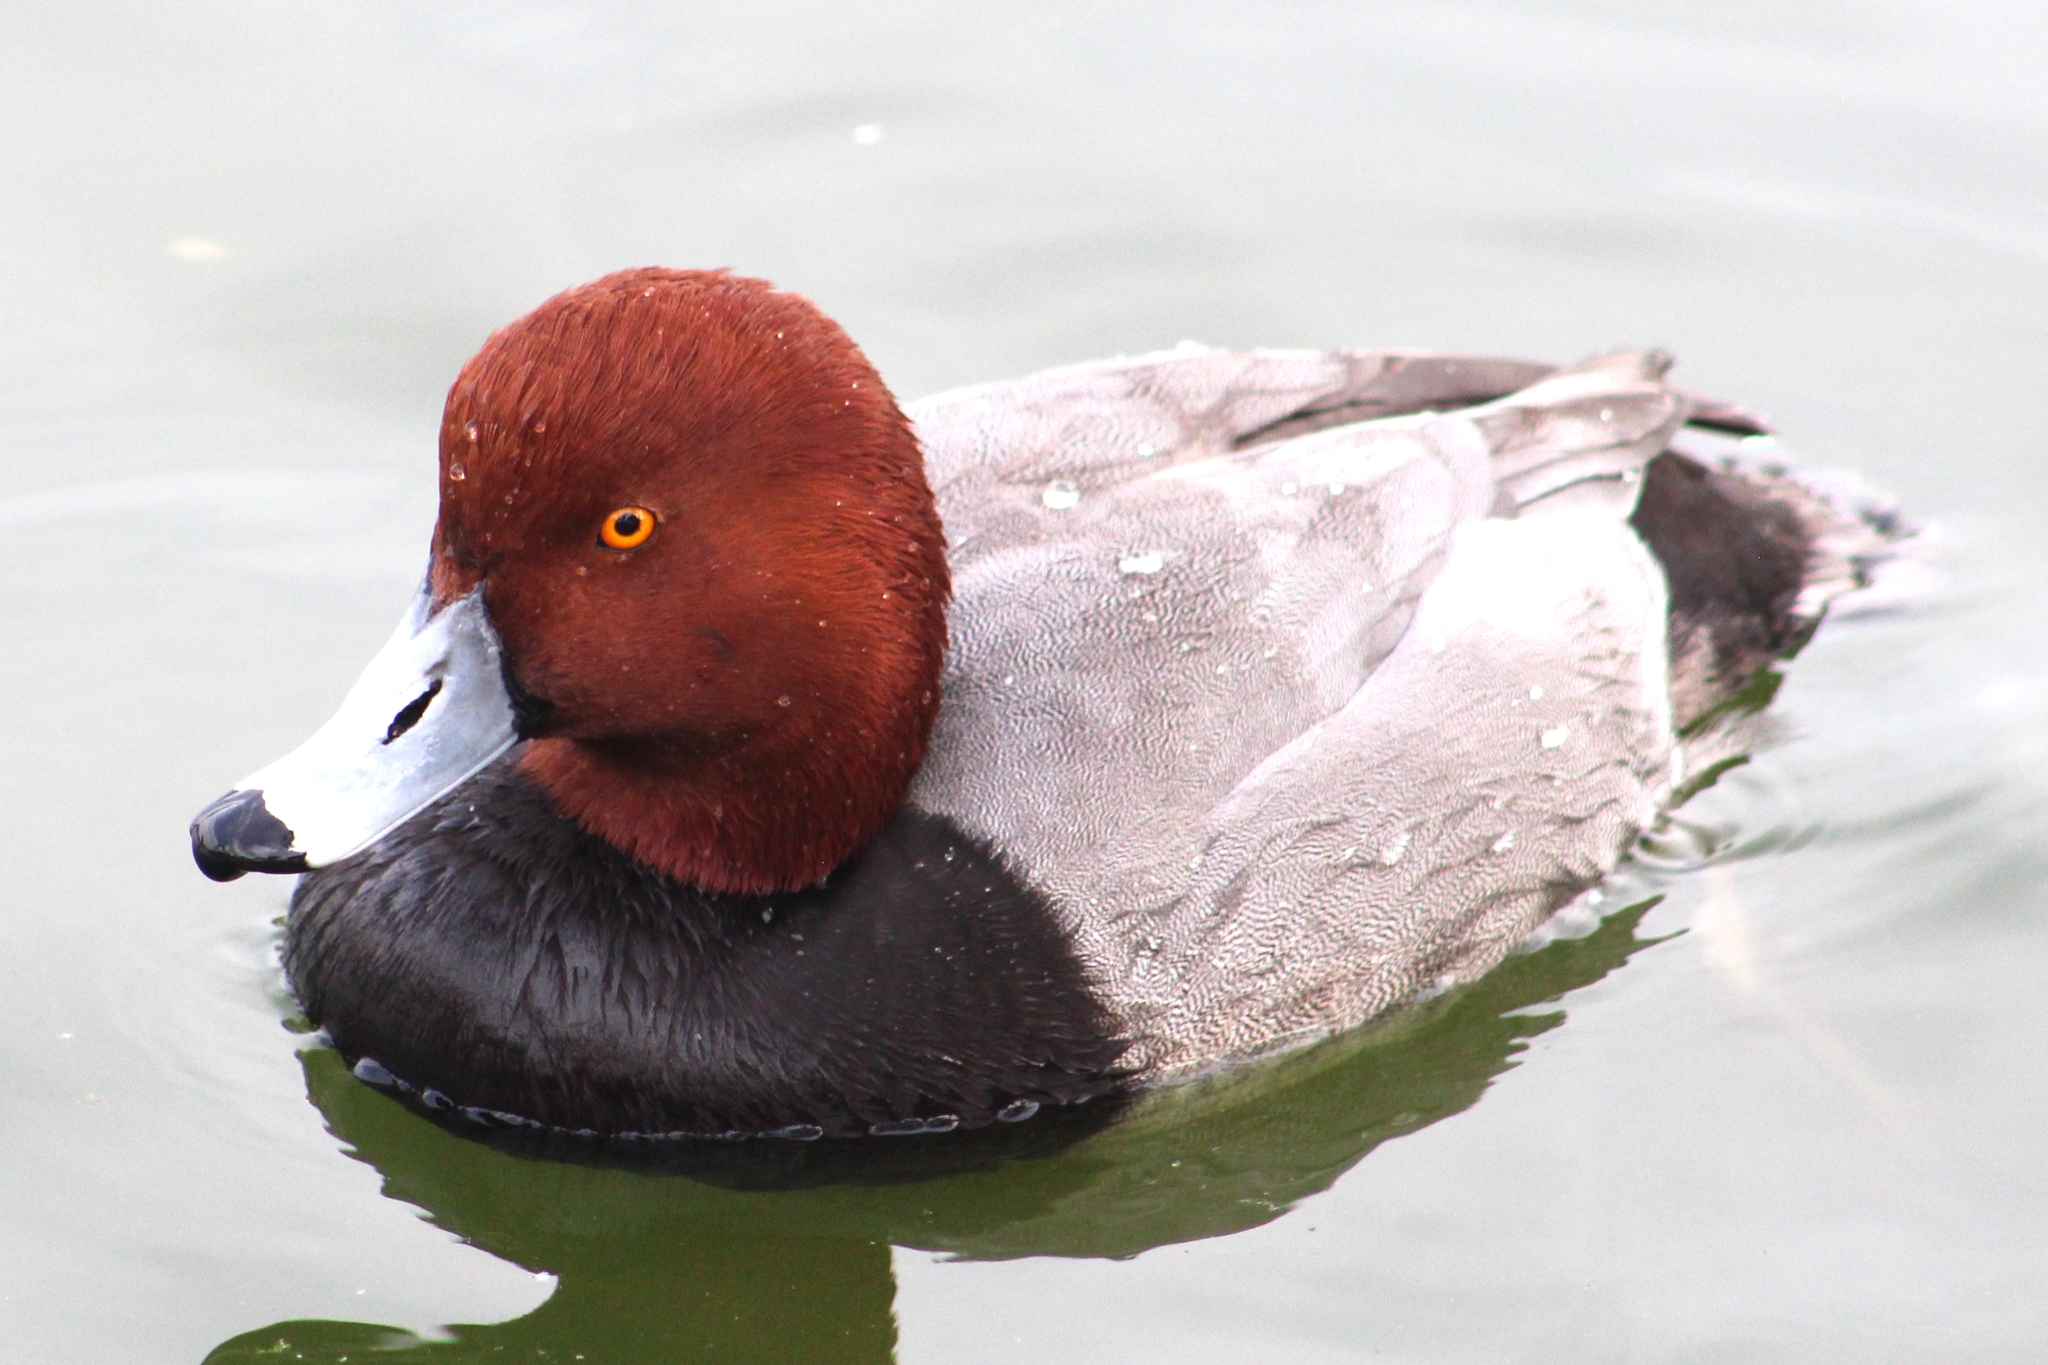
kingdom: Animalia
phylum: Chordata
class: Aves
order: Anseriformes
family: Anatidae
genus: Aythya
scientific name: Aythya americana
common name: Redhead
